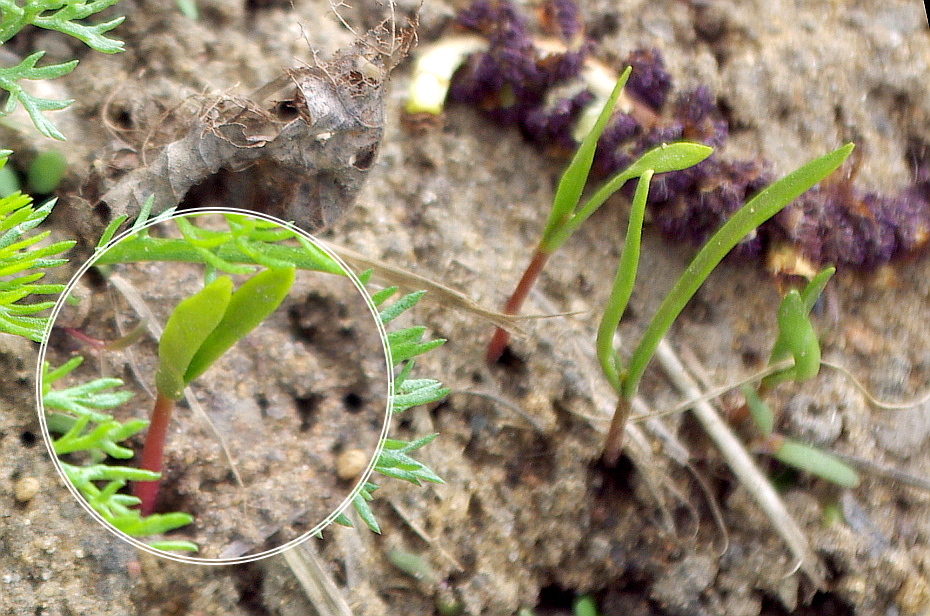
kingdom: Plantae
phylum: Tracheophyta
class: Magnoliopsida
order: Sapindales
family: Sapindaceae
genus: Acer
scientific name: Acer negundo
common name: Ashleaf maple
